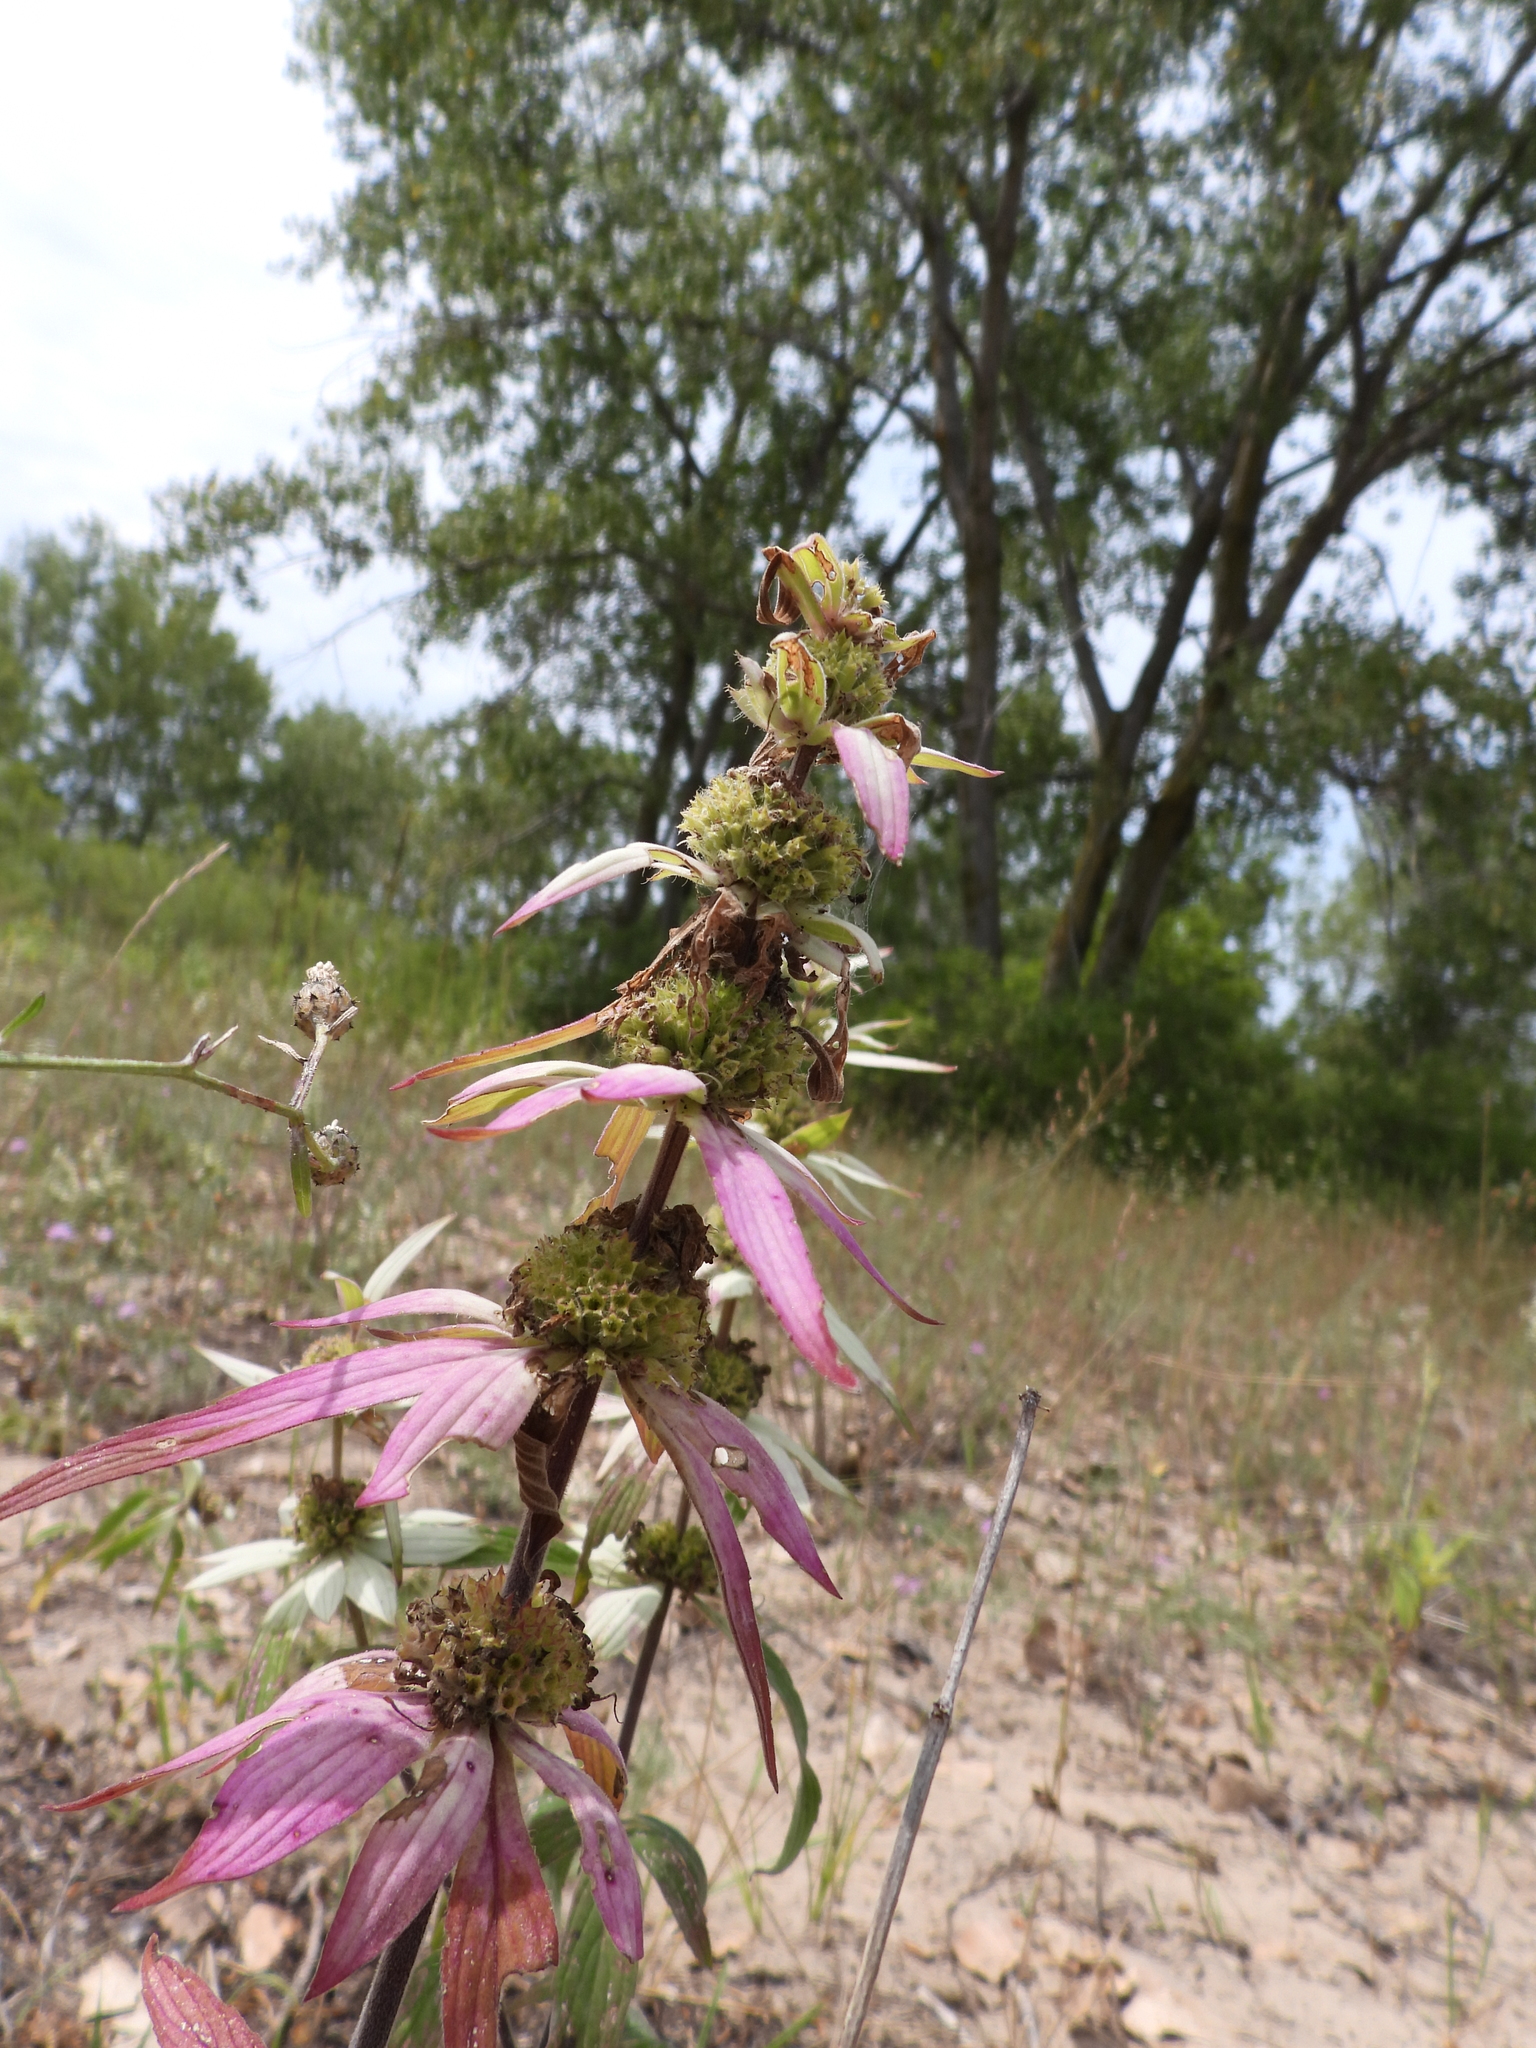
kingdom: Plantae
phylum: Tracheophyta
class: Magnoliopsida
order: Lamiales
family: Lamiaceae
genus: Monarda
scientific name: Monarda punctata
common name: Dotted monarda
